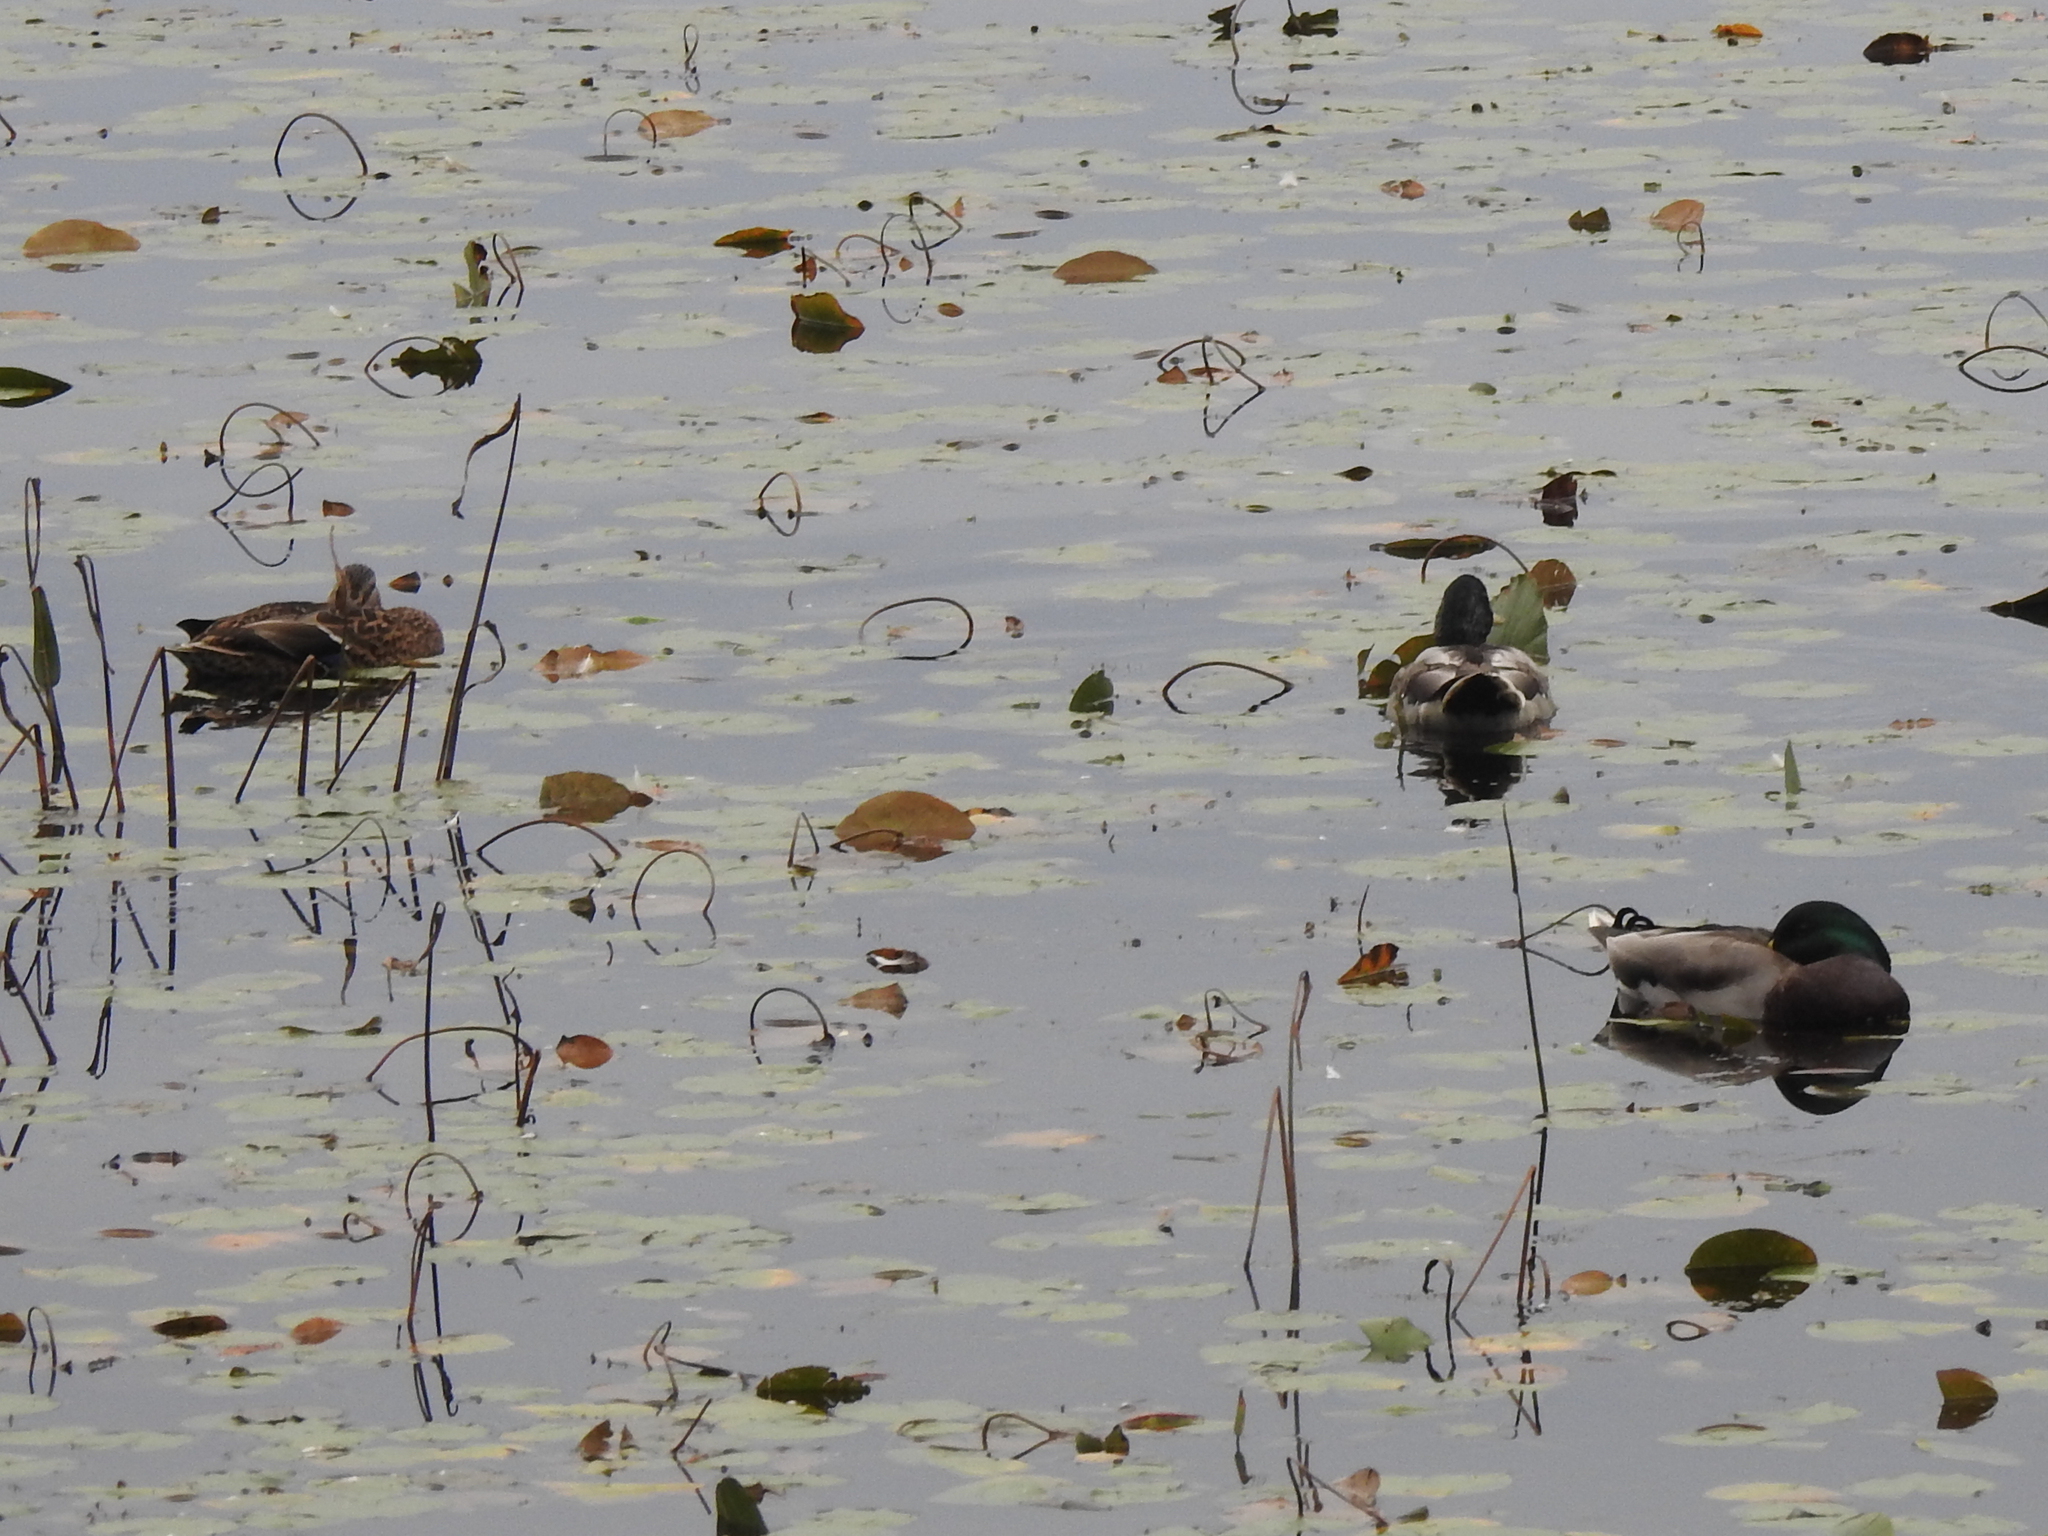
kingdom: Animalia
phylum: Chordata
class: Aves
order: Anseriformes
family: Anatidae
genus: Anas
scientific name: Anas platyrhynchos
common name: Mallard
